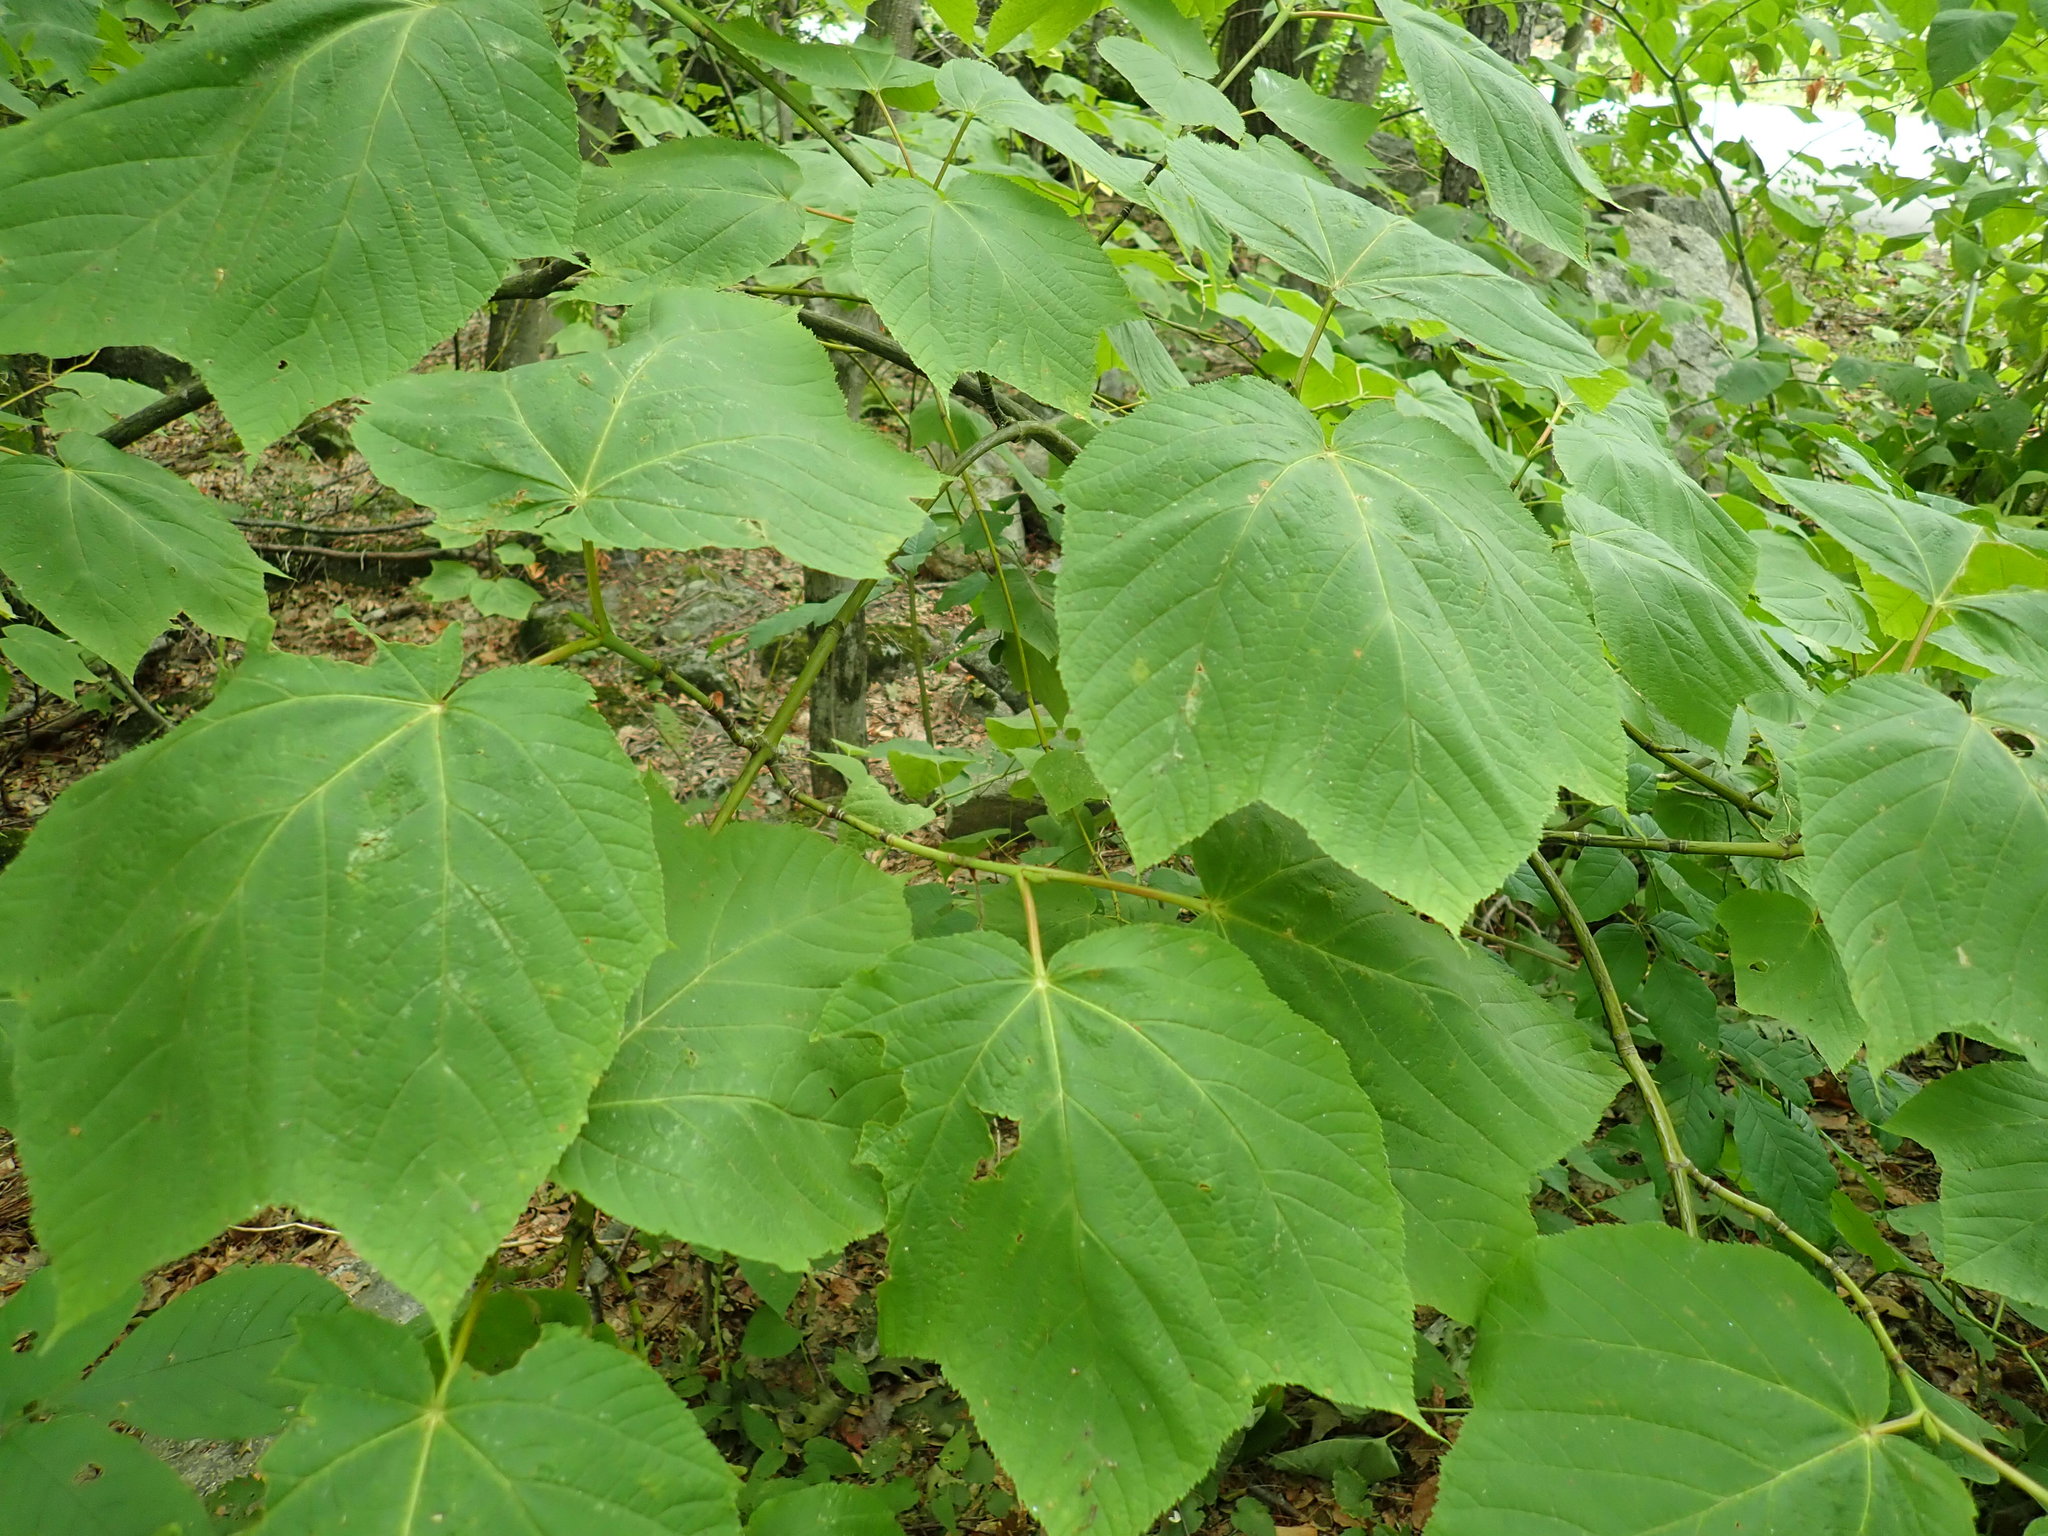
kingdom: Plantae
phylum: Tracheophyta
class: Magnoliopsida
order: Sapindales
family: Sapindaceae
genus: Acer
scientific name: Acer pensylvanicum
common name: Moosewood
